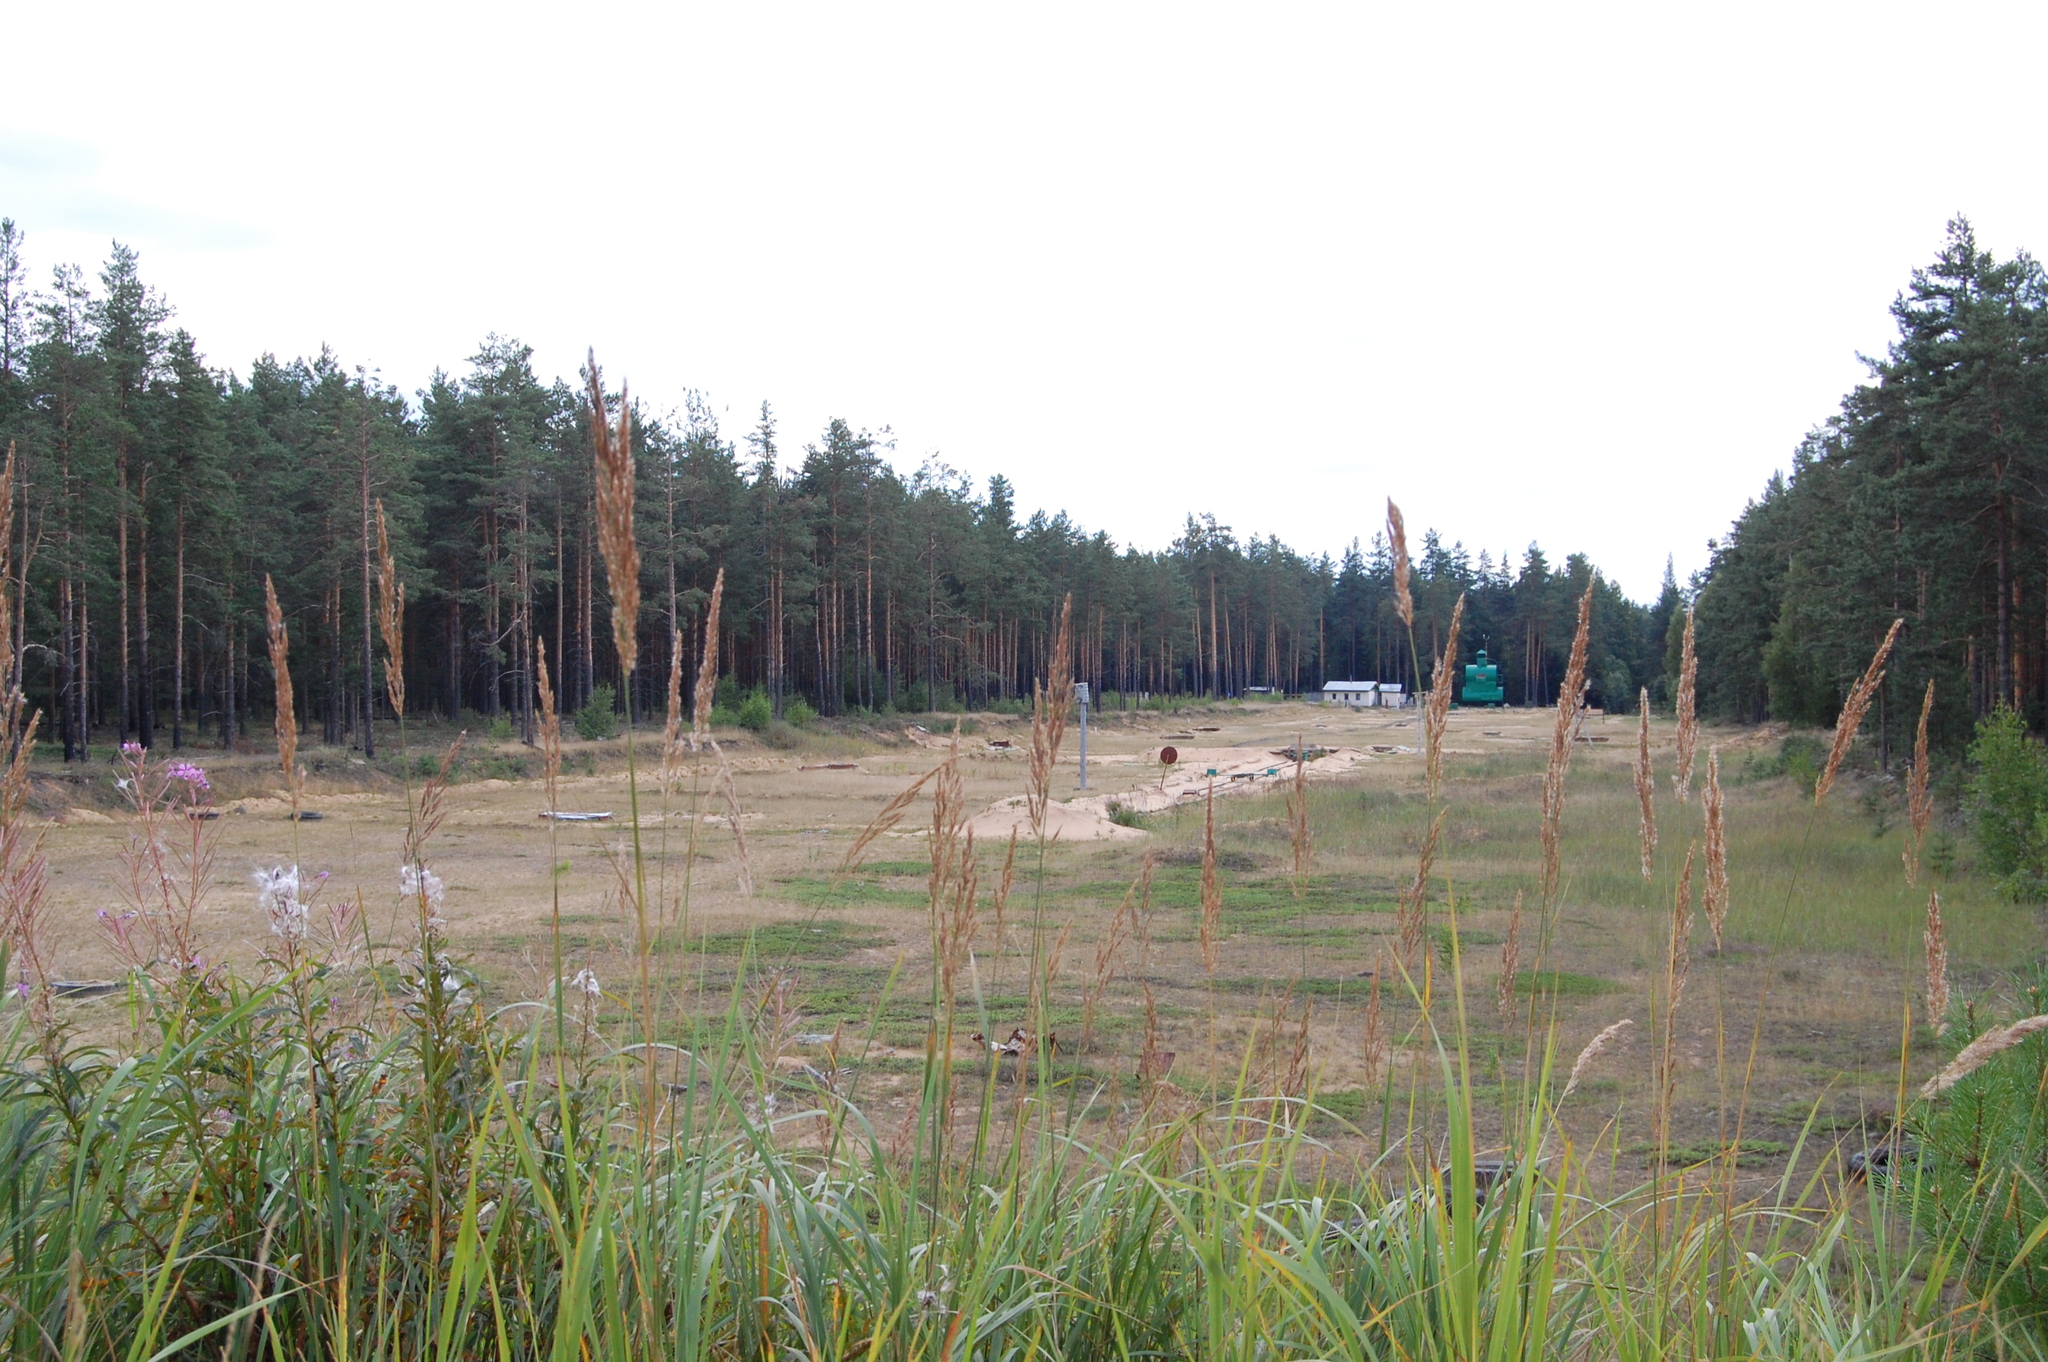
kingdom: Plantae
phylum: Tracheophyta
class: Liliopsida
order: Poales
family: Poaceae
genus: Calamagrostis
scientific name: Calamagrostis epigejos
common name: Wood small-reed
